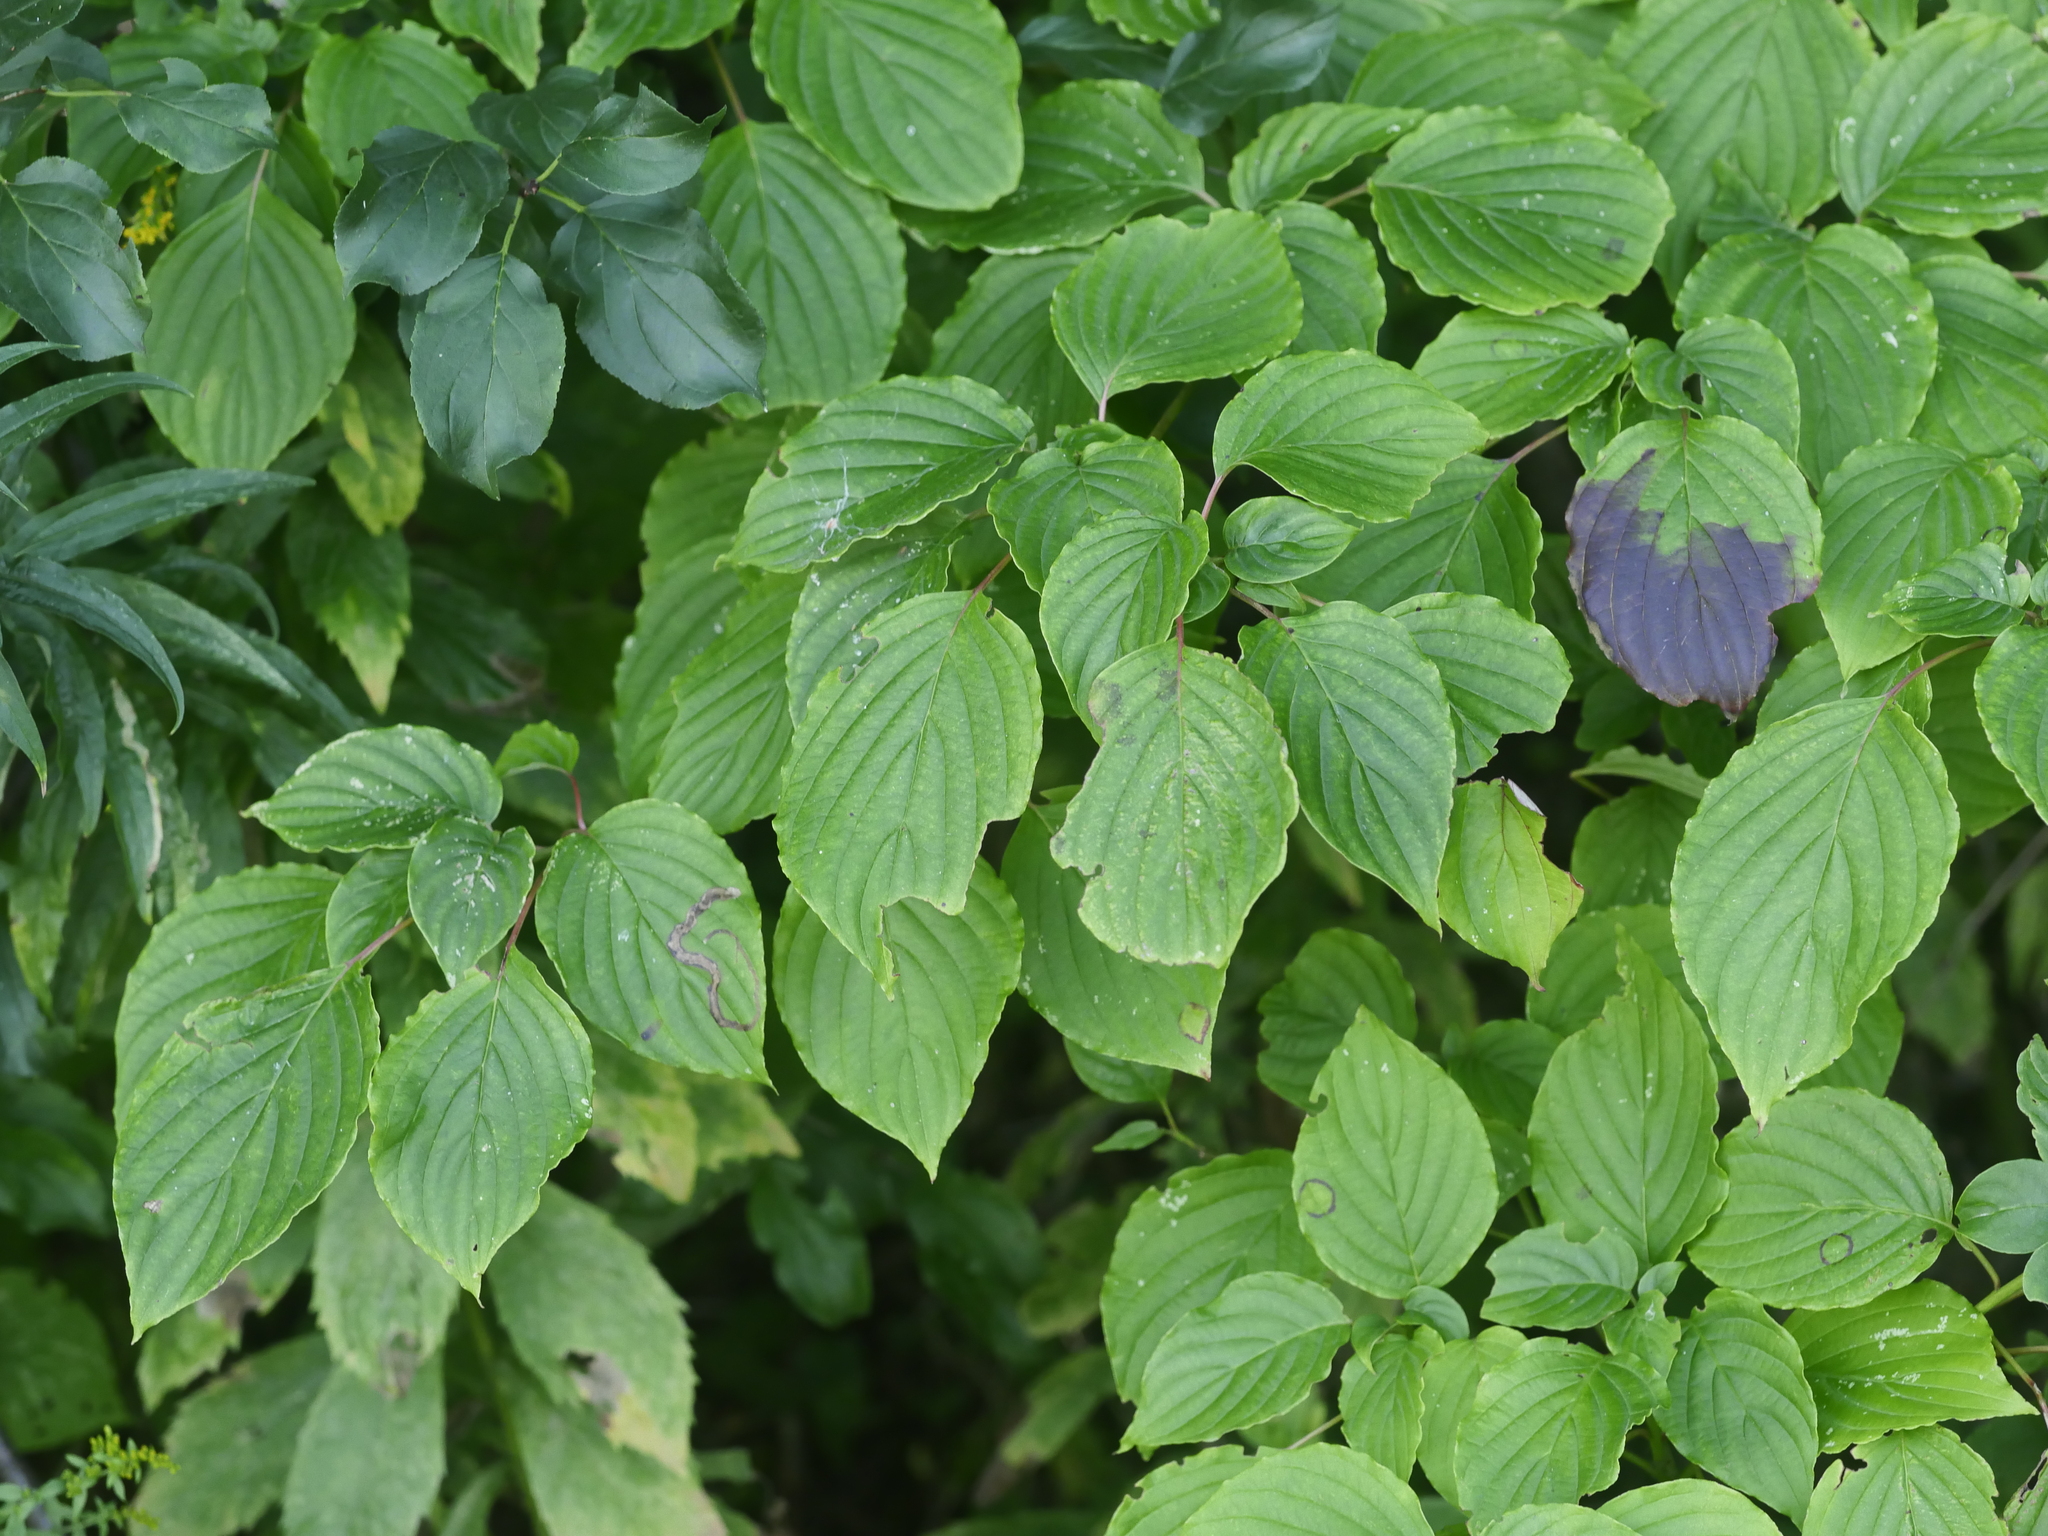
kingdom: Plantae
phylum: Tracheophyta
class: Magnoliopsida
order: Cornales
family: Cornaceae
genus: Cornus
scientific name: Cornus alternifolia
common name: Pagoda dogwood
